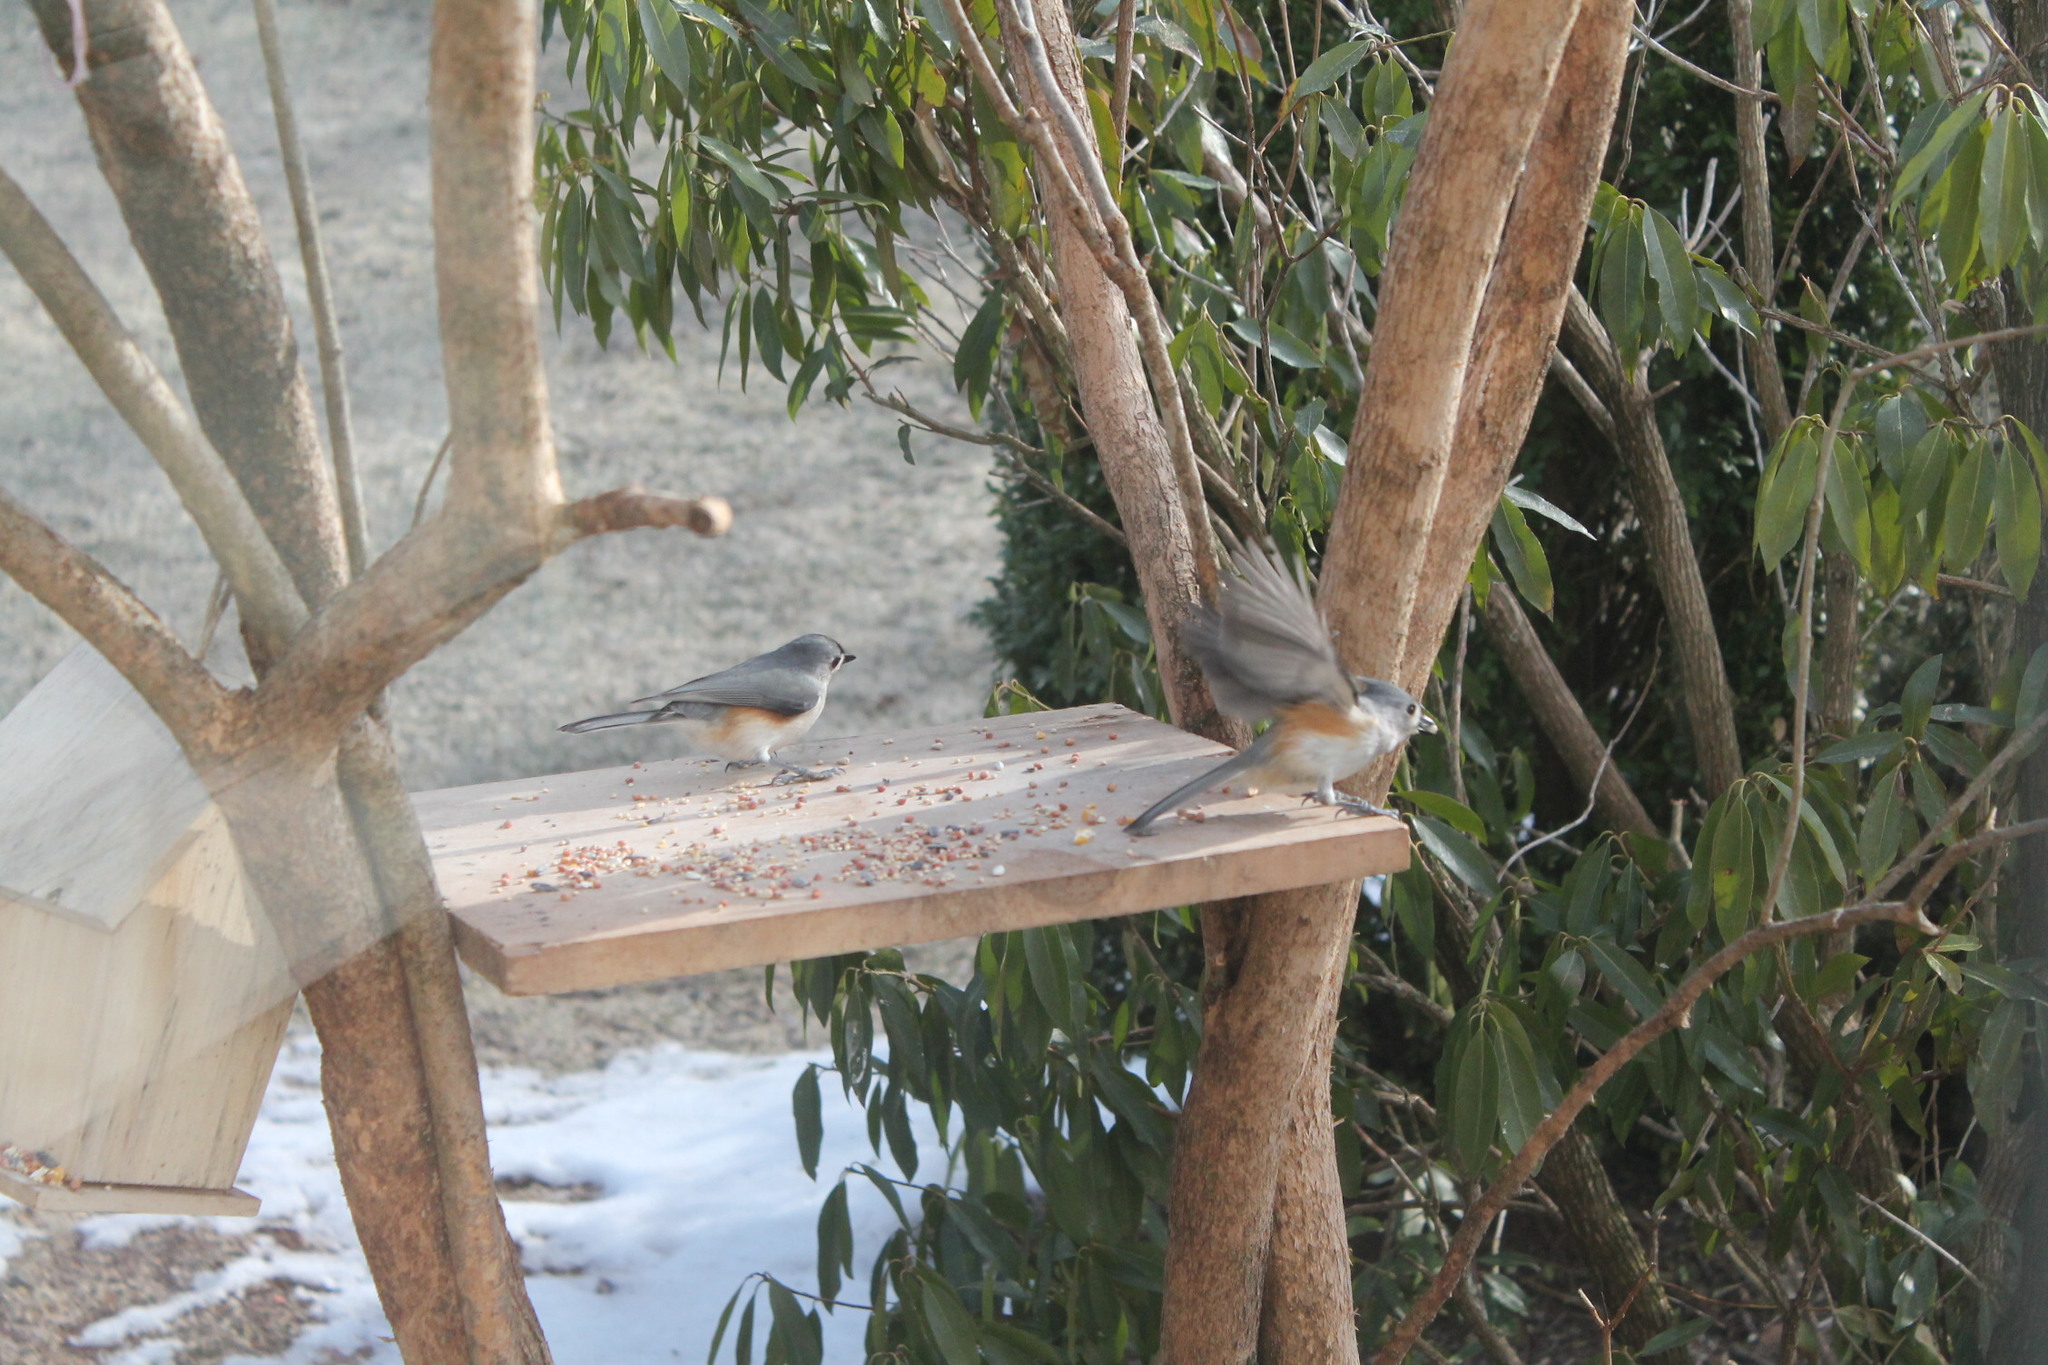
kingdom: Animalia
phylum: Chordata
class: Aves
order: Passeriformes
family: Paridae
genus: Baeolophus
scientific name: Baeolophus bicolor
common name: Tufted titmouse
